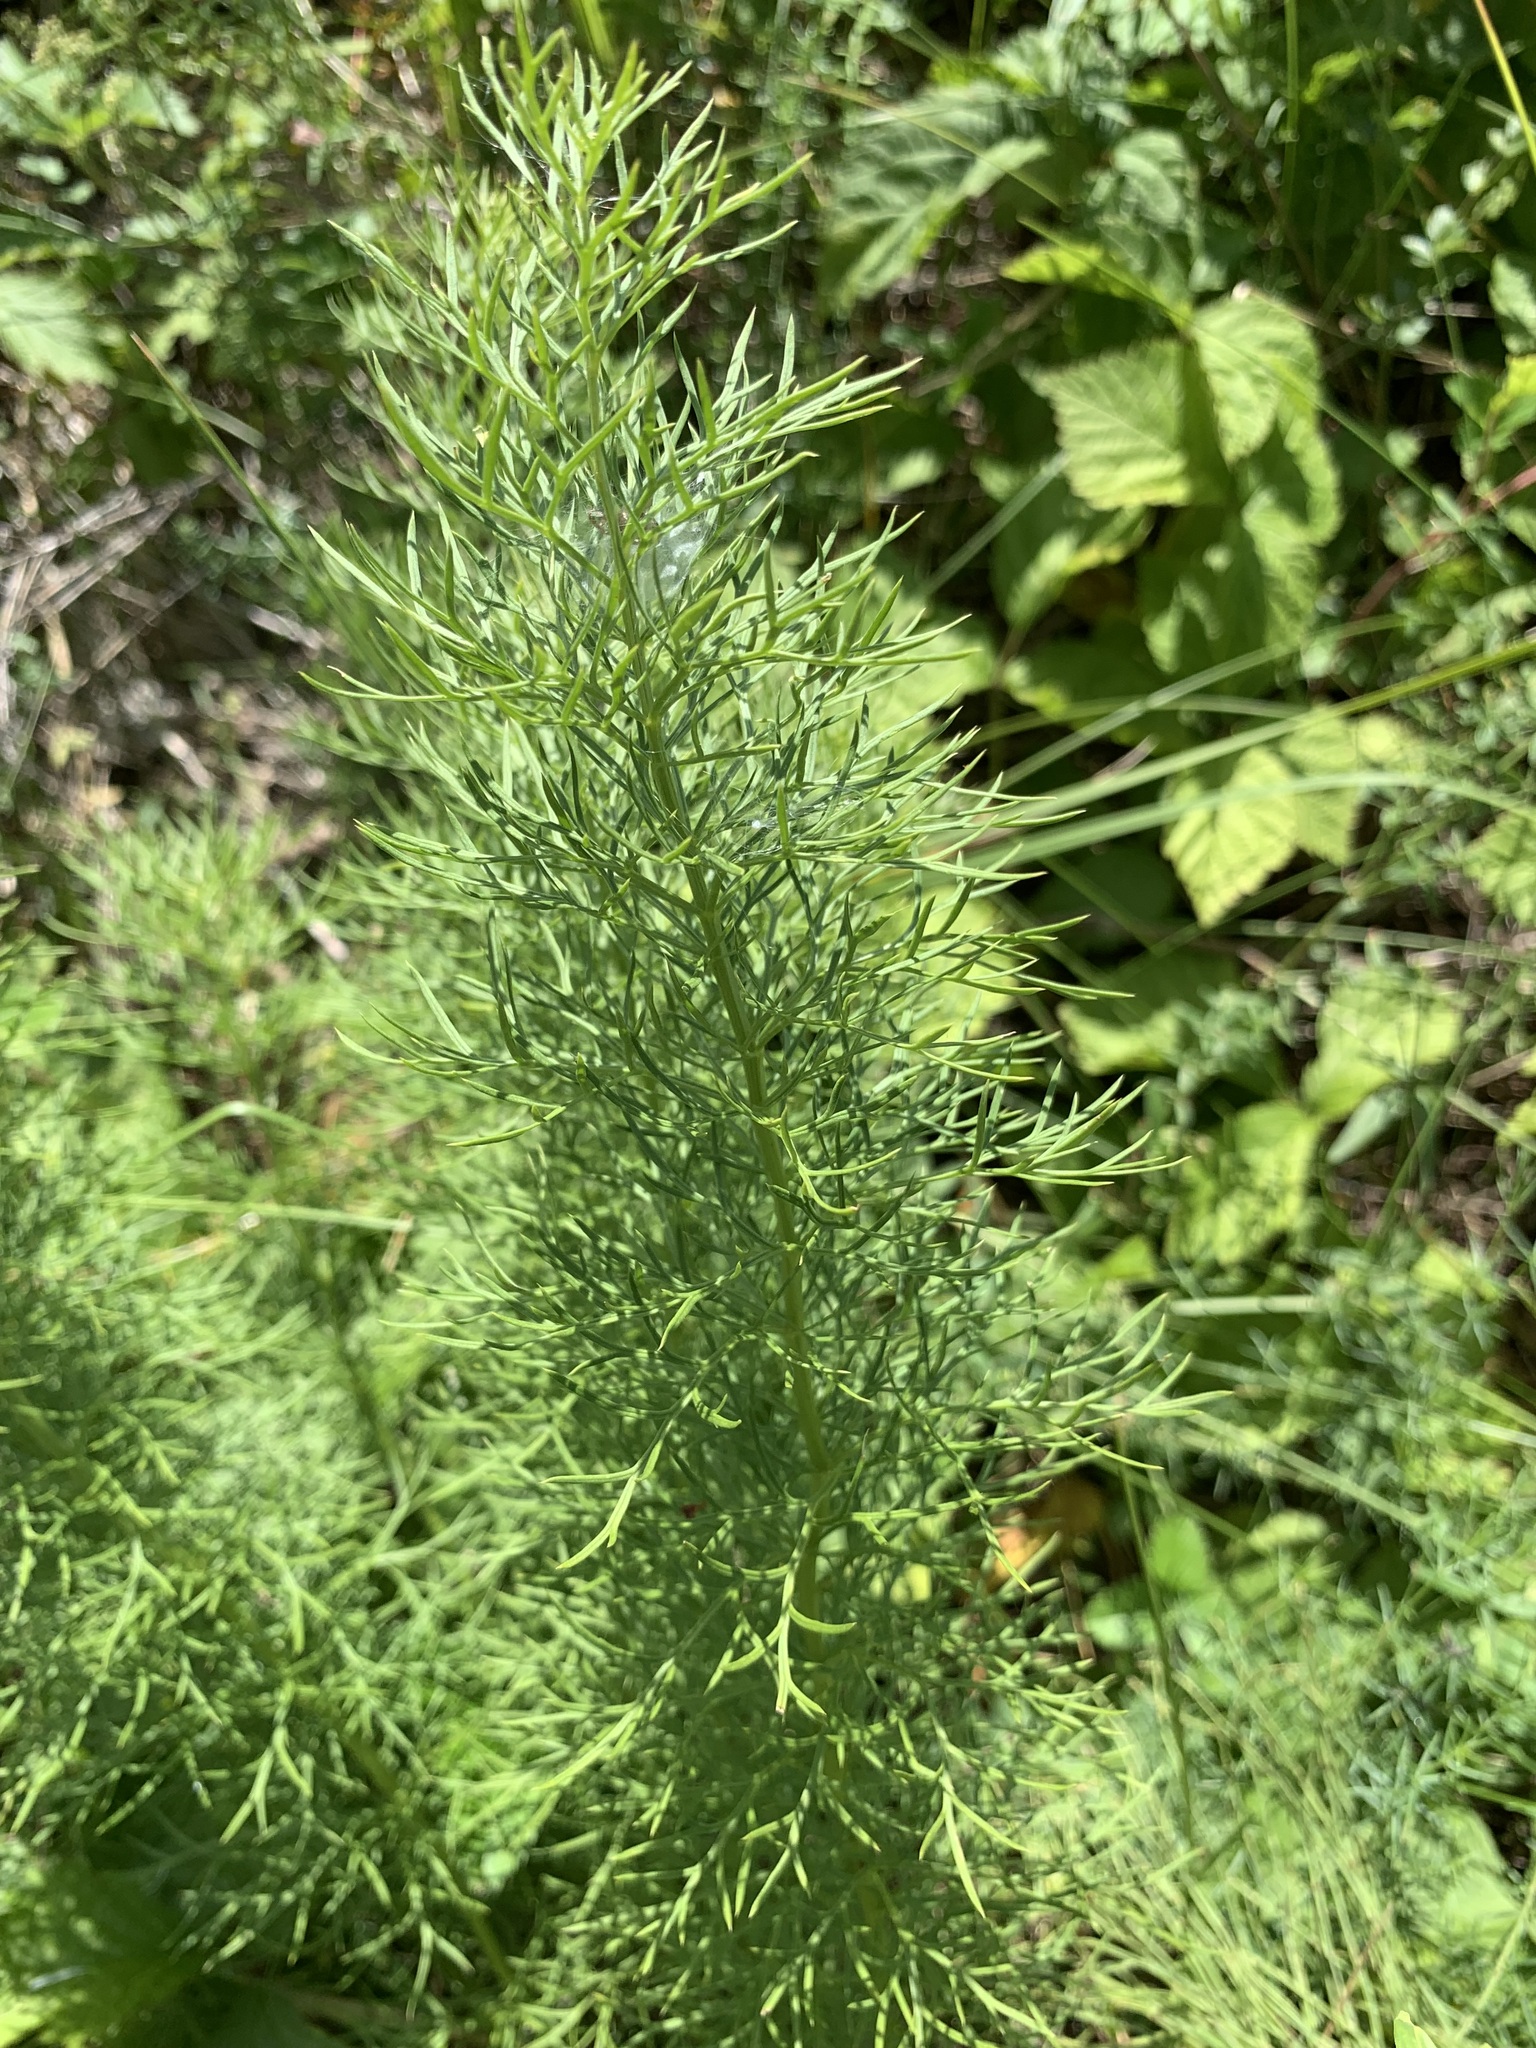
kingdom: Plantae
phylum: Tracheophyta
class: Magnoliopsida
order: Ranunculales
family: Ranunculaceae
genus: Adonis
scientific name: Adonis vernalis
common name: Yellow pheasants-eye
